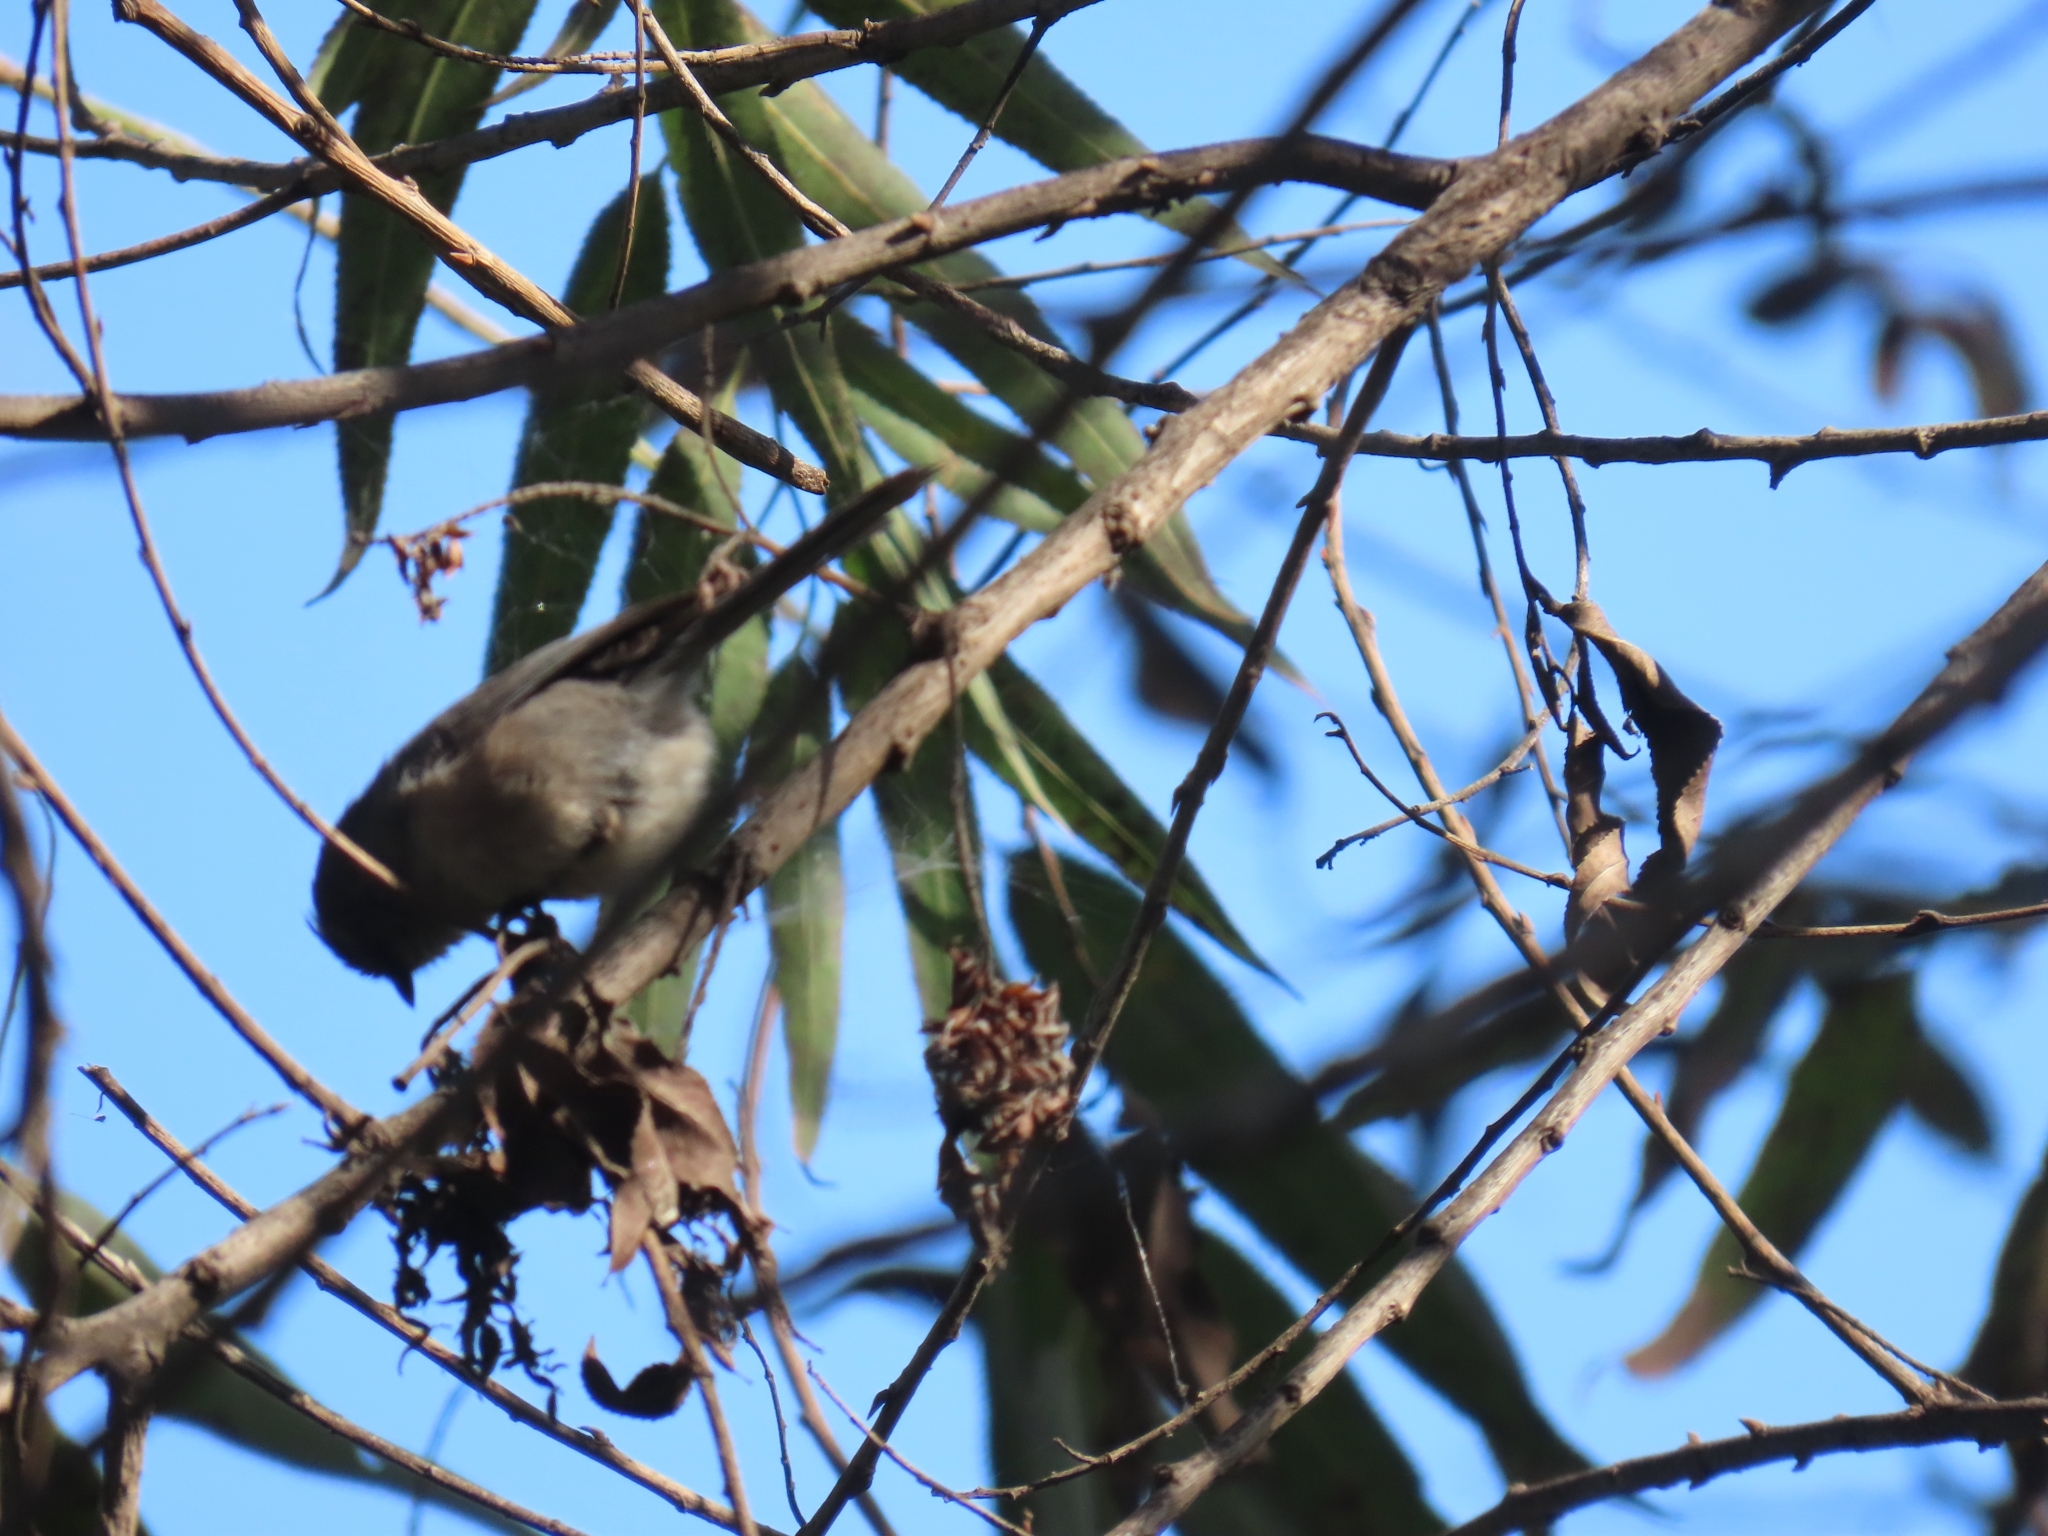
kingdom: Animalia
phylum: Chordata
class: Aves
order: Passeriformes
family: Aegithalidae
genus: Psaltriparus
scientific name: Psaltriparus minimus
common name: American bushtit
